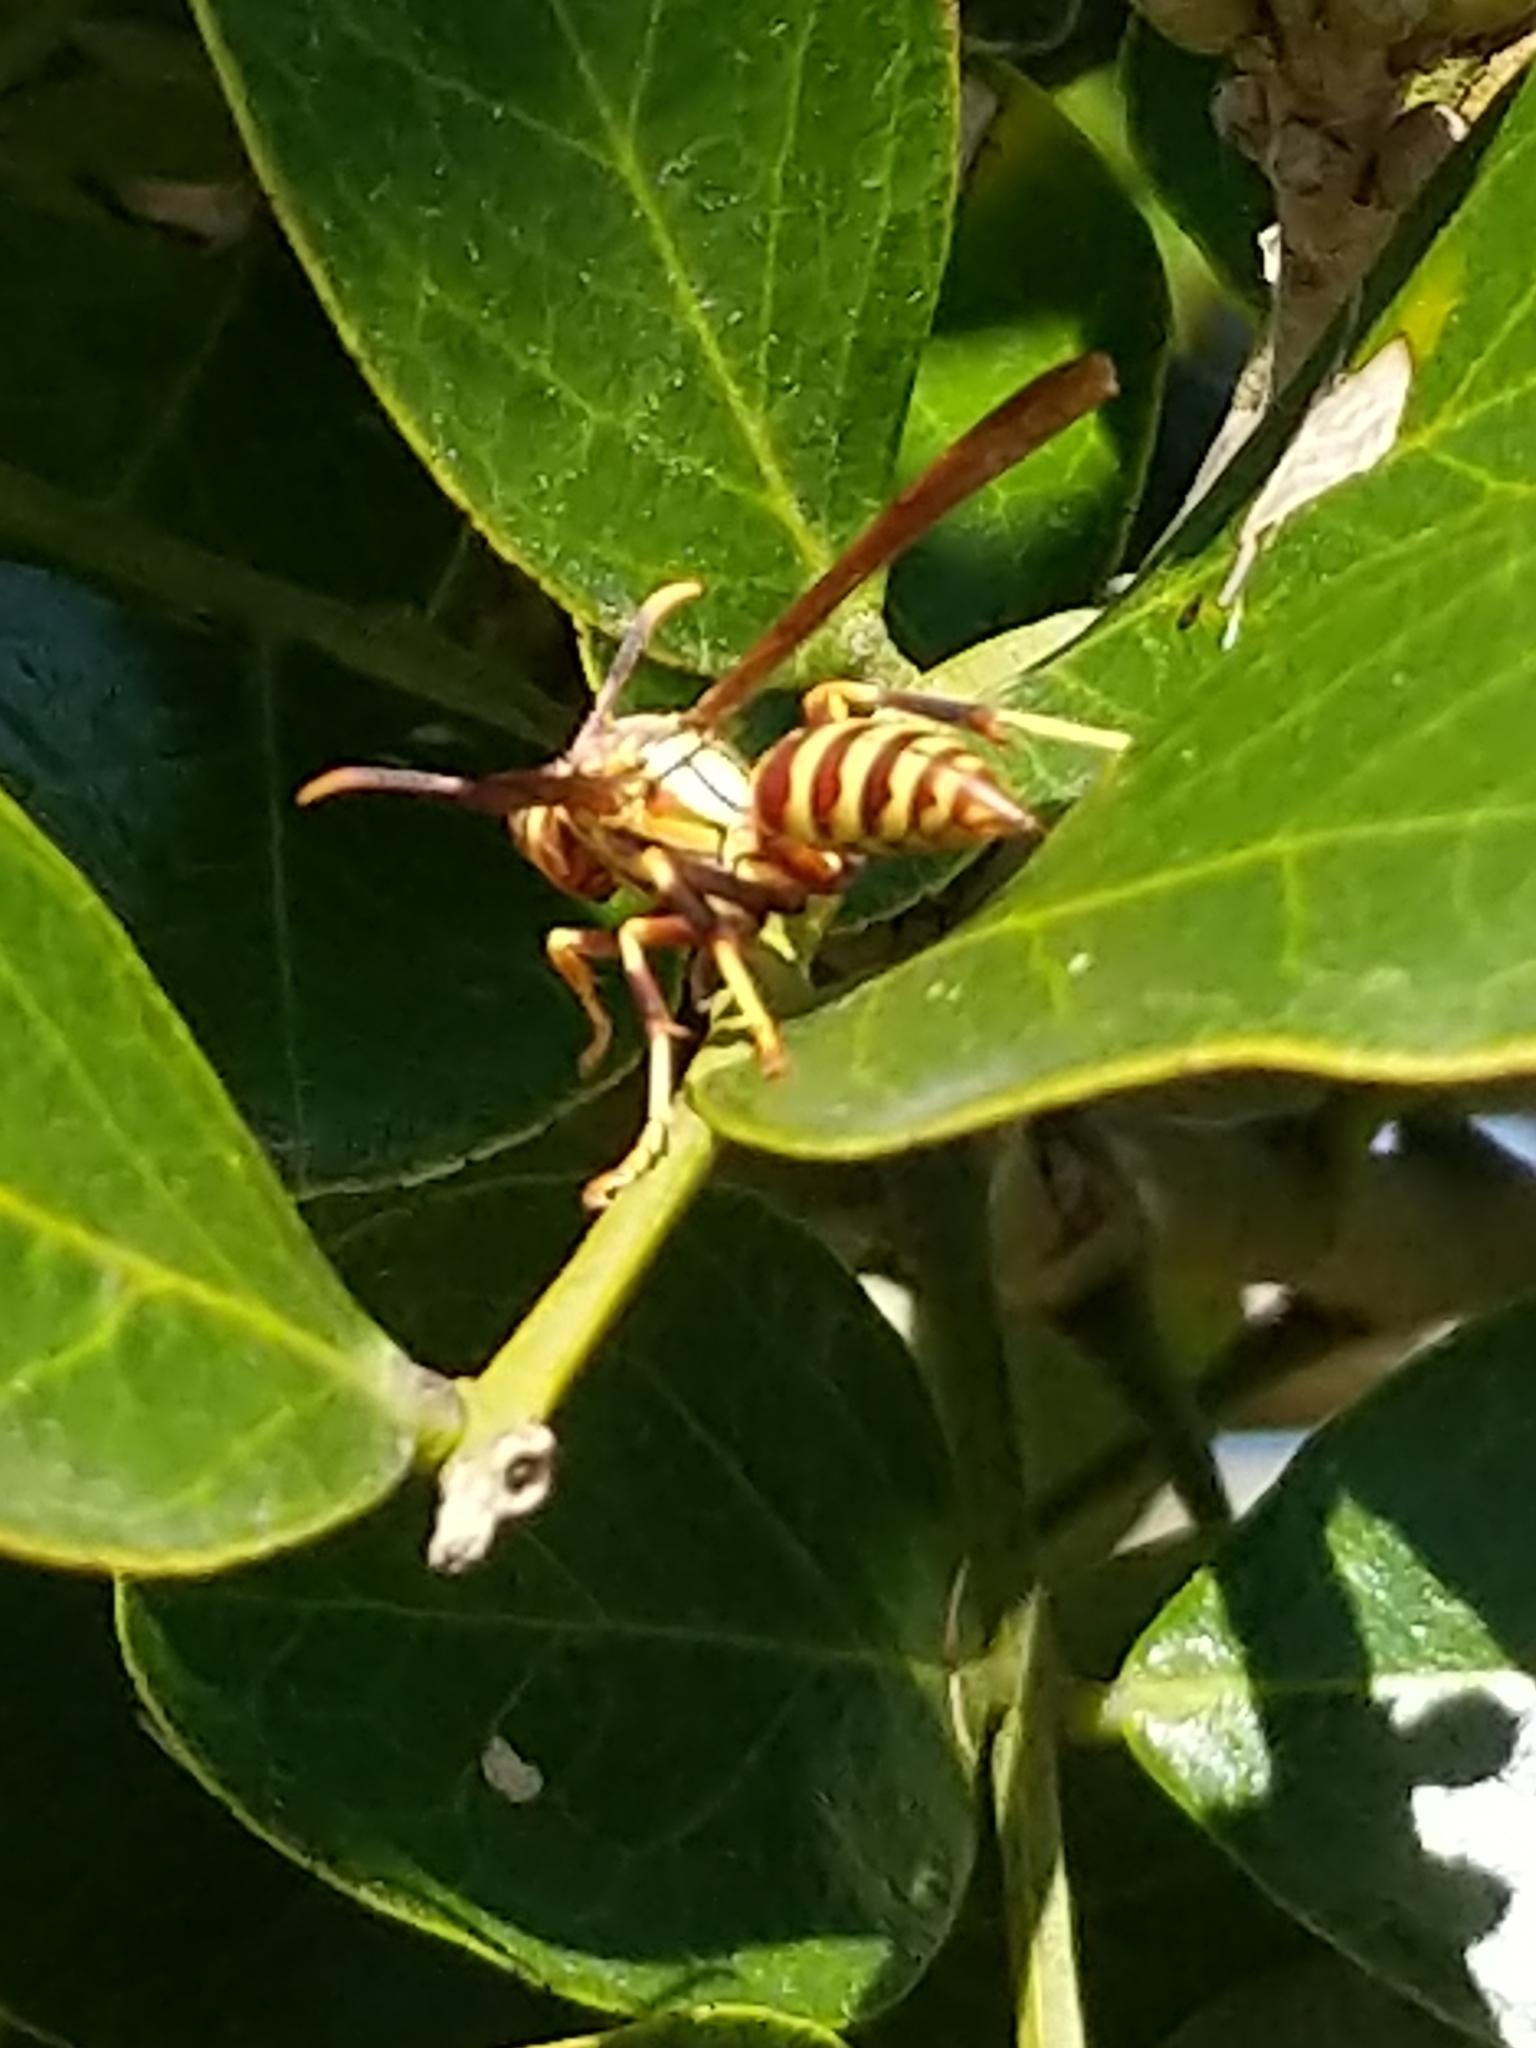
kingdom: Animalia
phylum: Arthropoda
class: Insecta
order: Hymenoptera
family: Eumenidae
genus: Polistes
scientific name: Polistes exclamans
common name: Paper wasp
